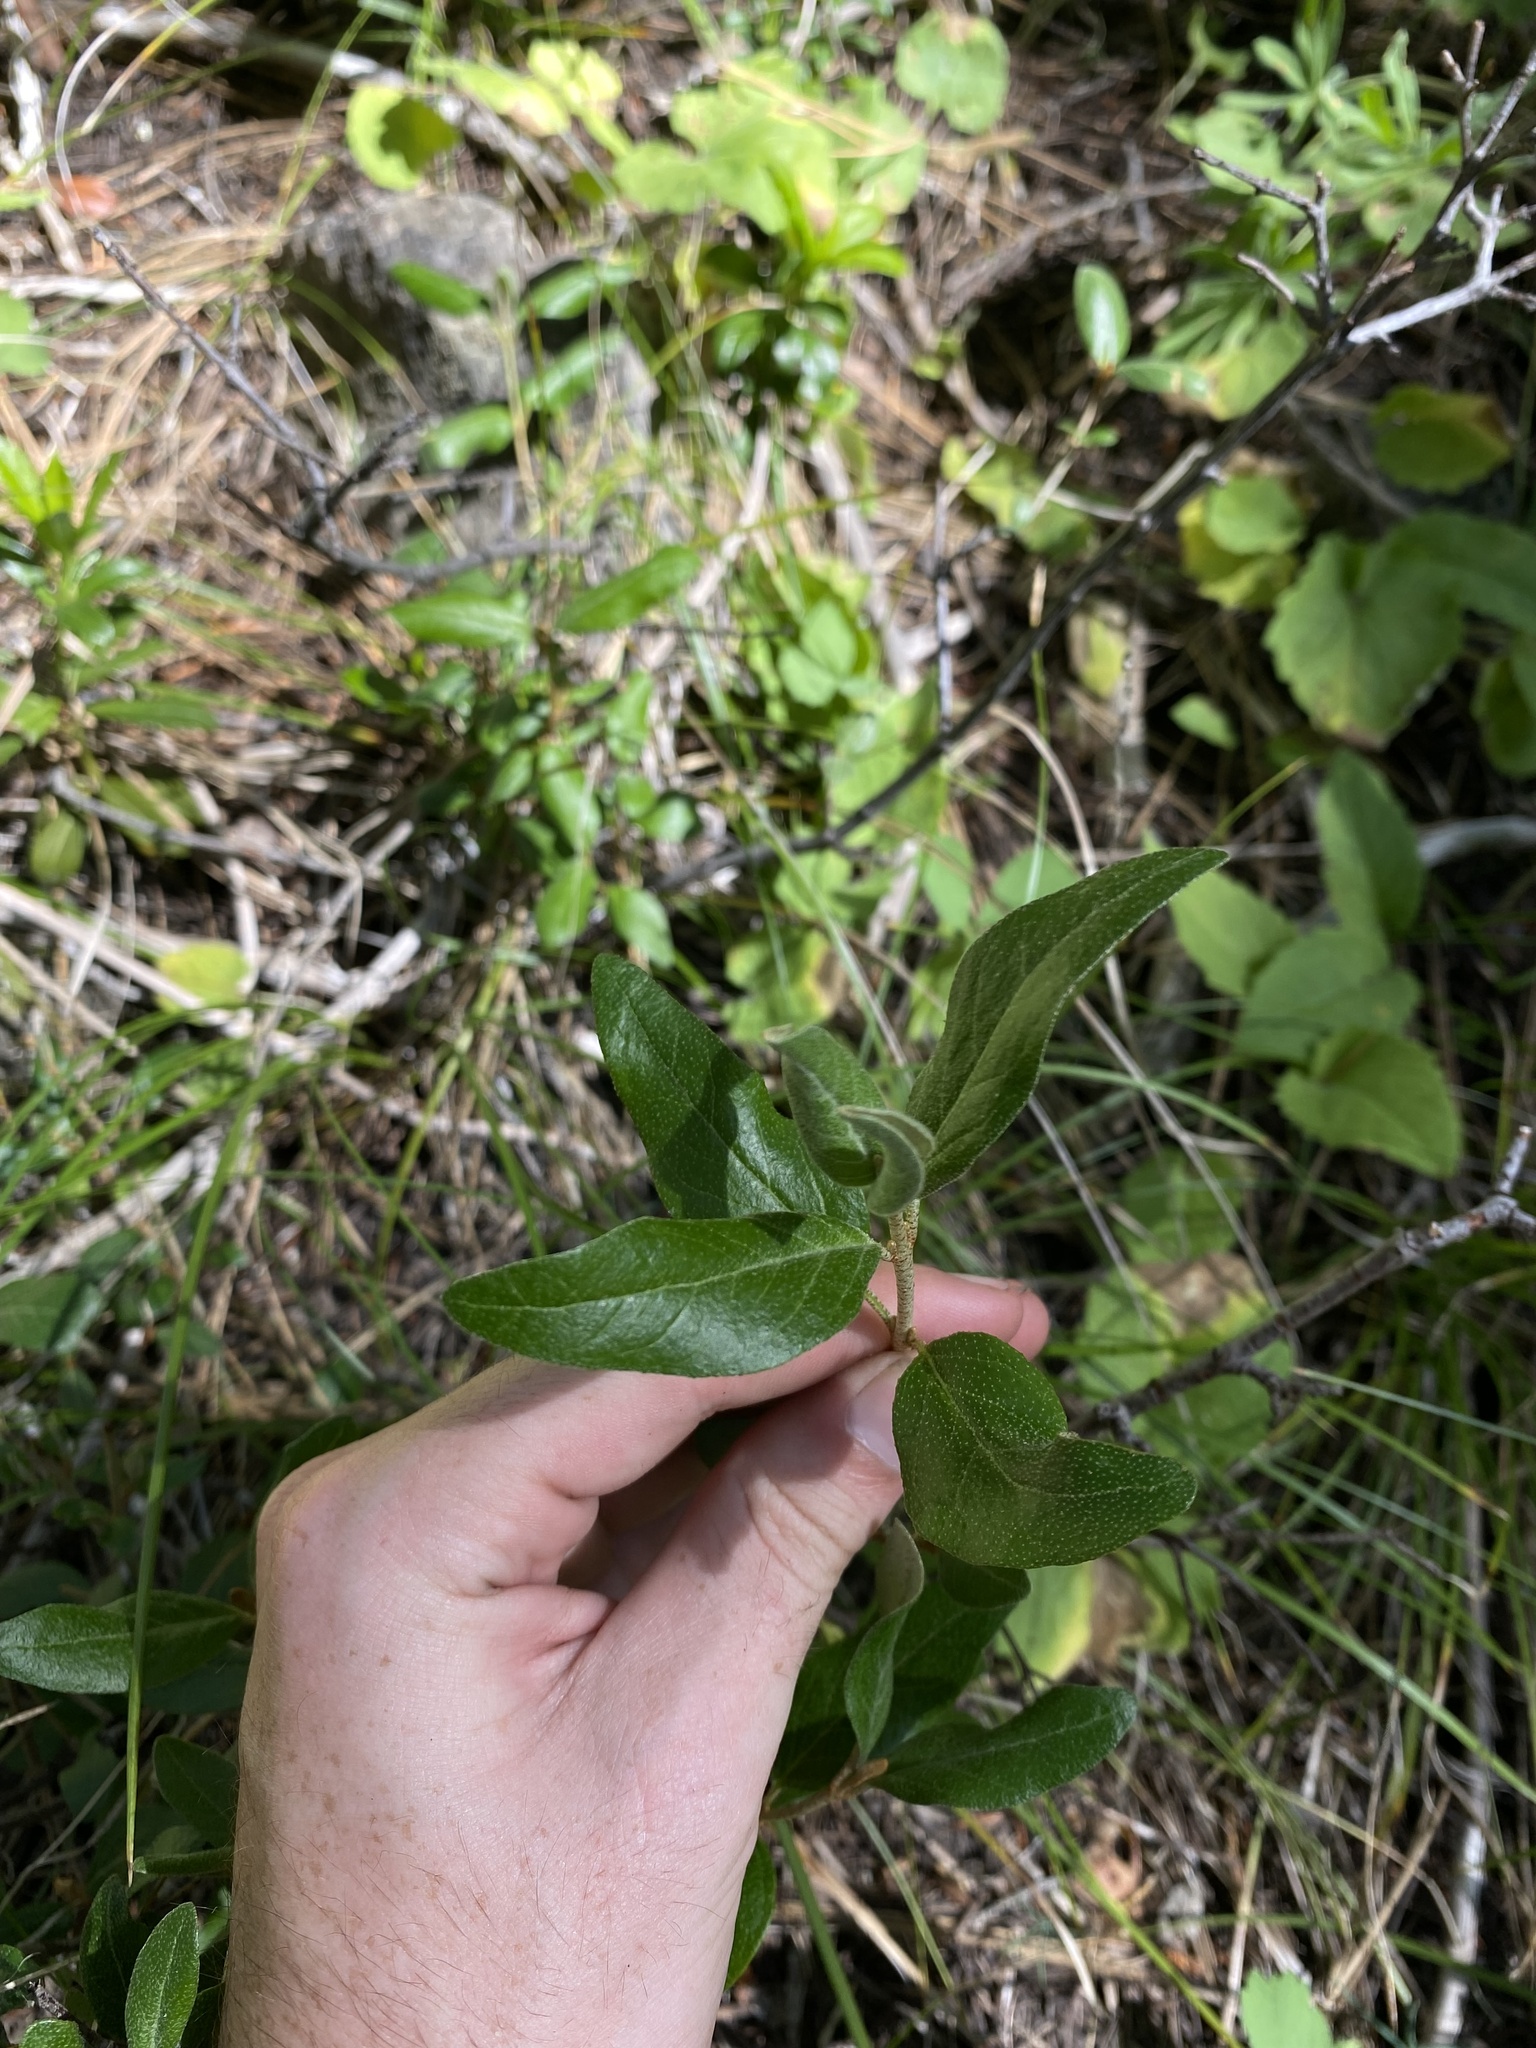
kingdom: Plantae
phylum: Tracheophyta
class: Magnoliopsida
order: Rosales
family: Elaeagnaceae
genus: Shepherdia
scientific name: Shepherdia canadensis
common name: Soapberry
